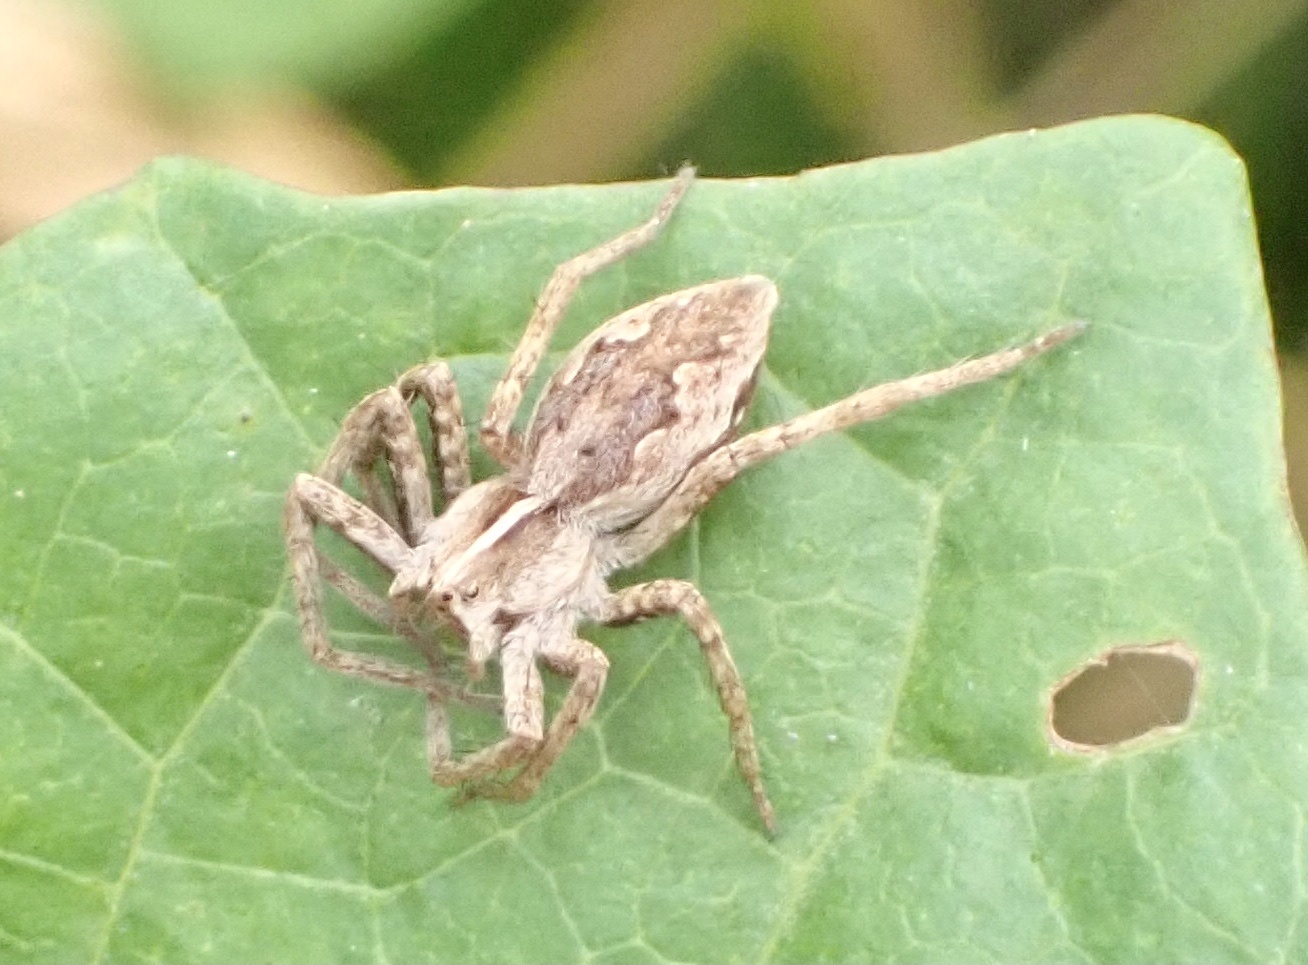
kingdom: Animalia
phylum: Arthropoda
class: Arachnida
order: Araneae
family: Pisauridae
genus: Pisaura
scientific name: Pisaura mirabilis
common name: Tent spider
